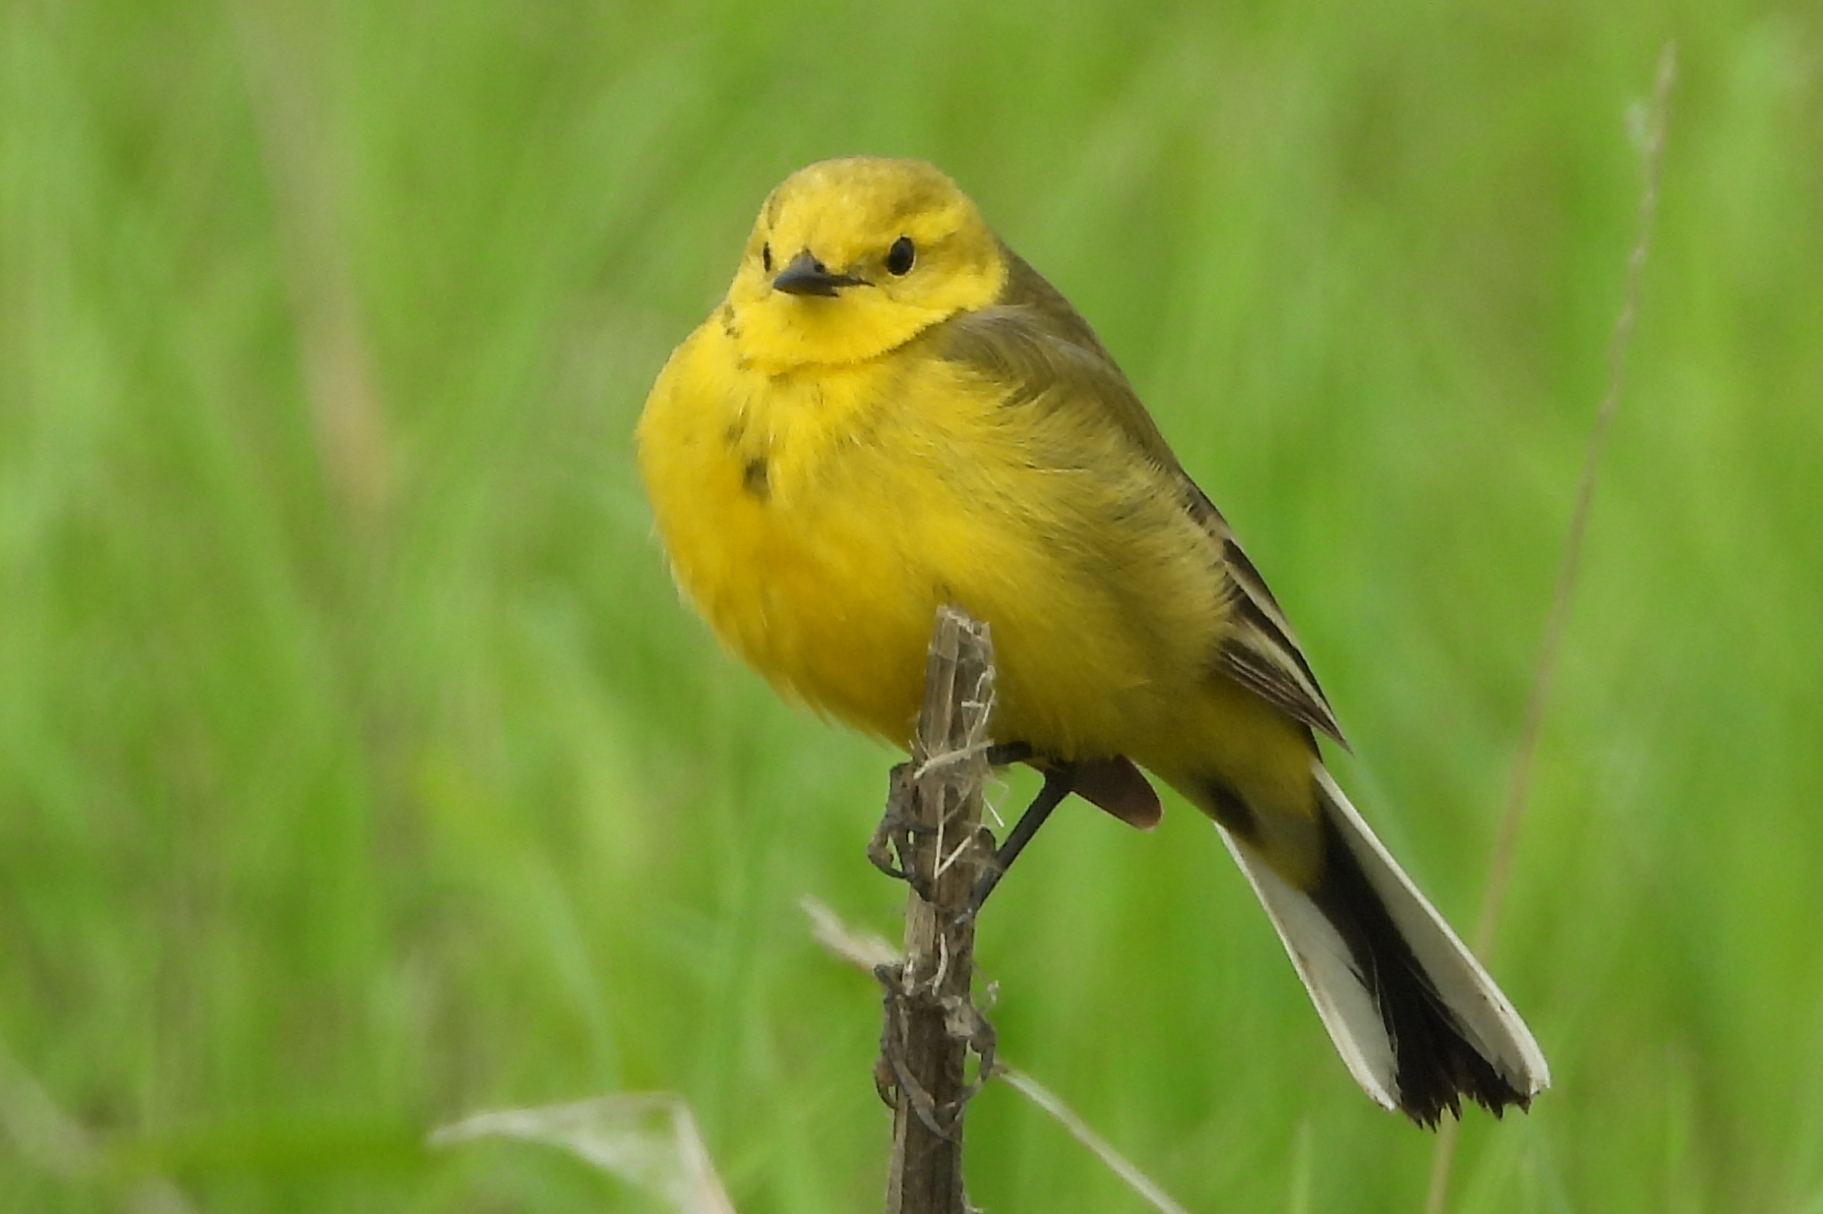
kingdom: Animalia
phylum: Chordata
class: Aves
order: Passeriformes
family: Motacillidae
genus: Motacilla
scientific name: Motacilla flava
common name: Western yellow wagtail
